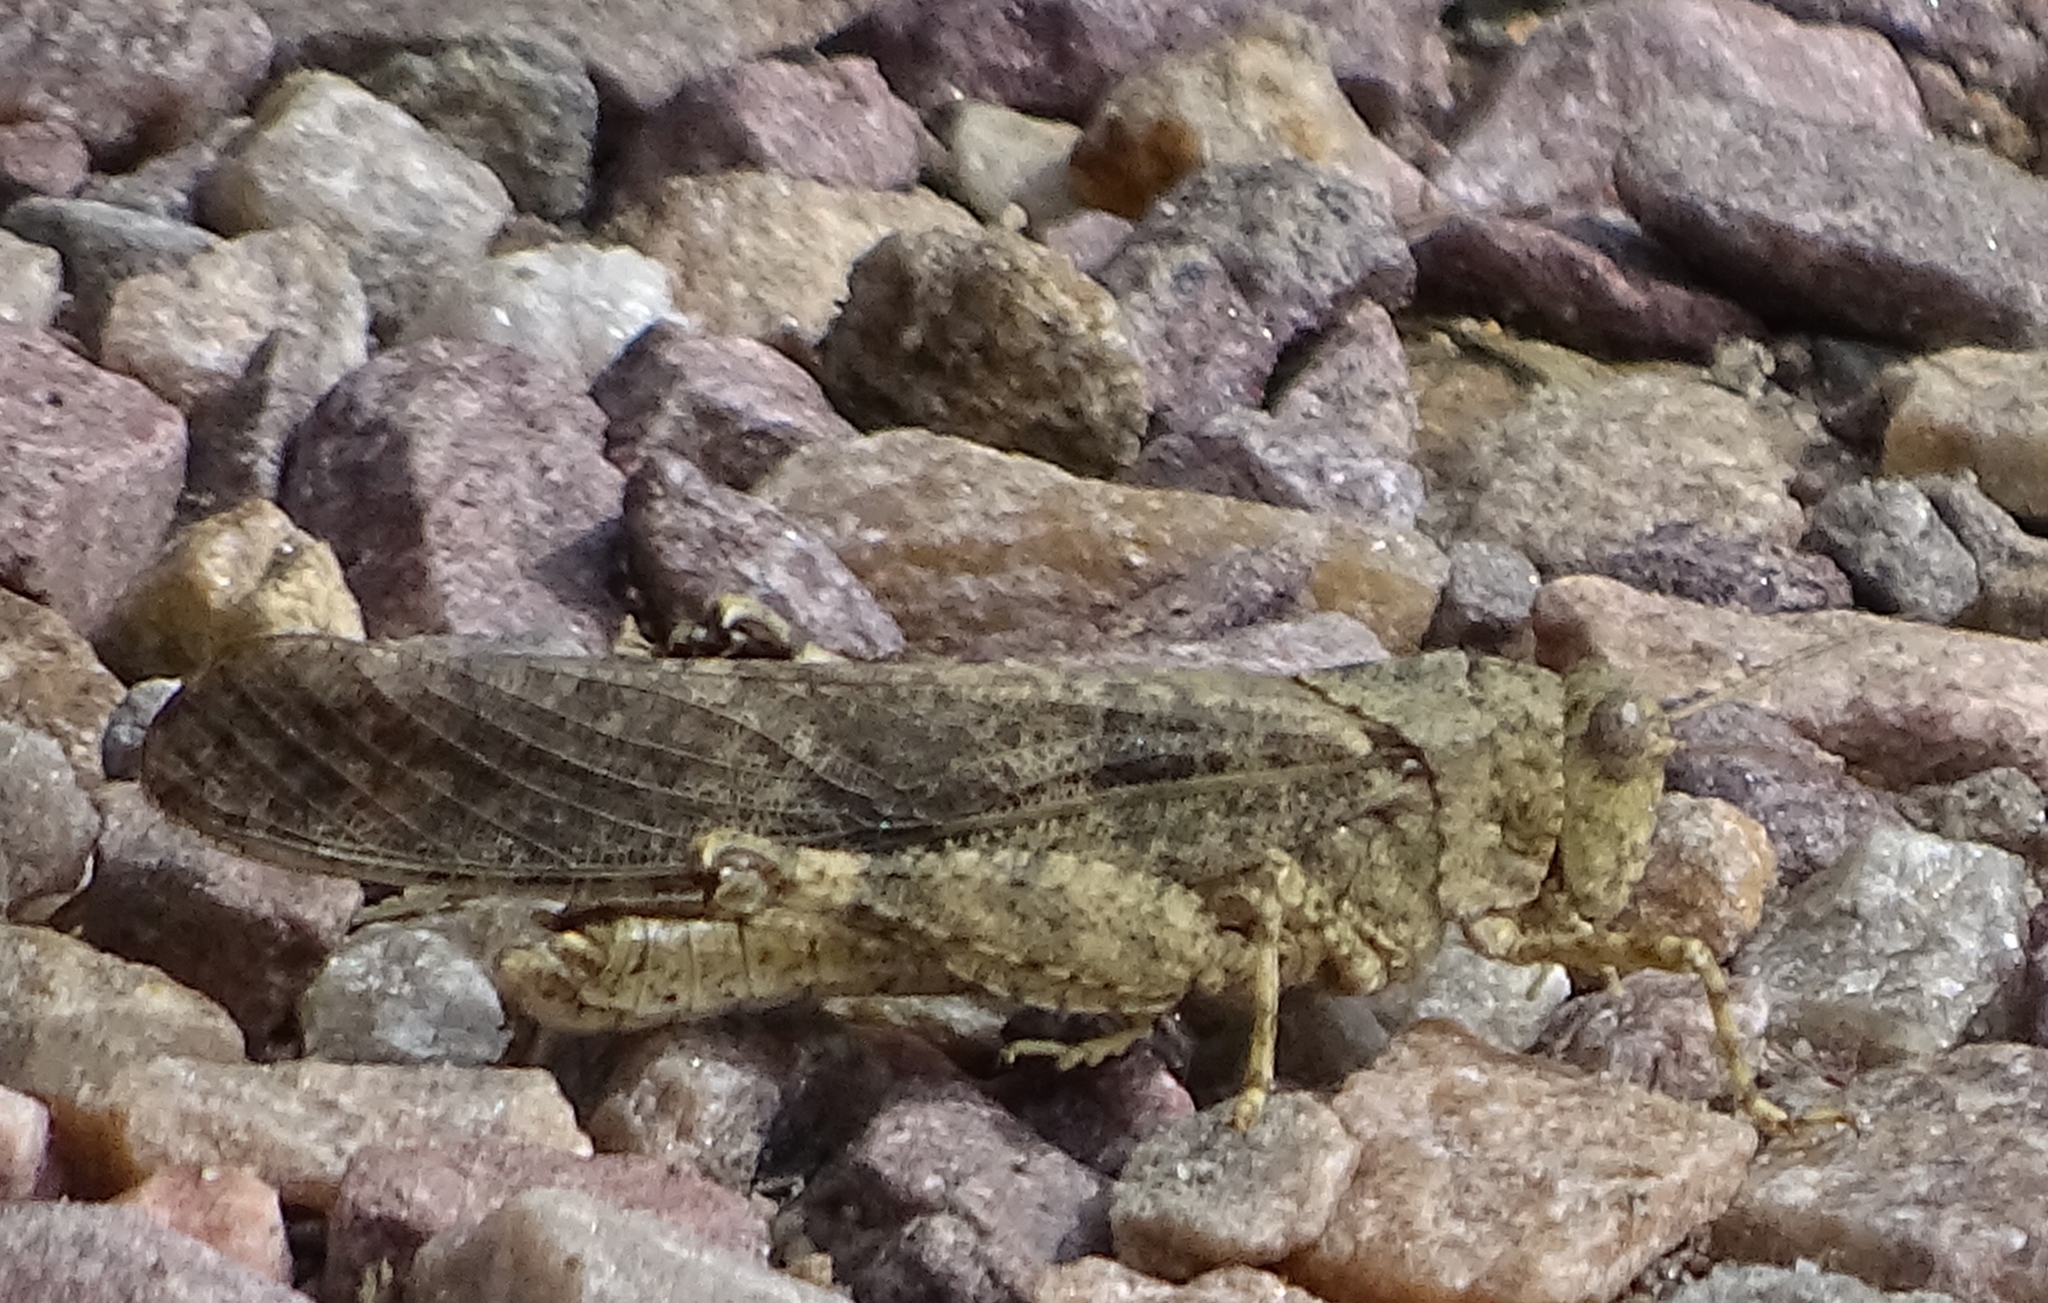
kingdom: Animalia
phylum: Arthropoda
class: Insecta
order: Orthoptera
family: Acrididae
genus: Dissosteira
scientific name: Dissosteira carolina
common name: Carolina grasshopper
